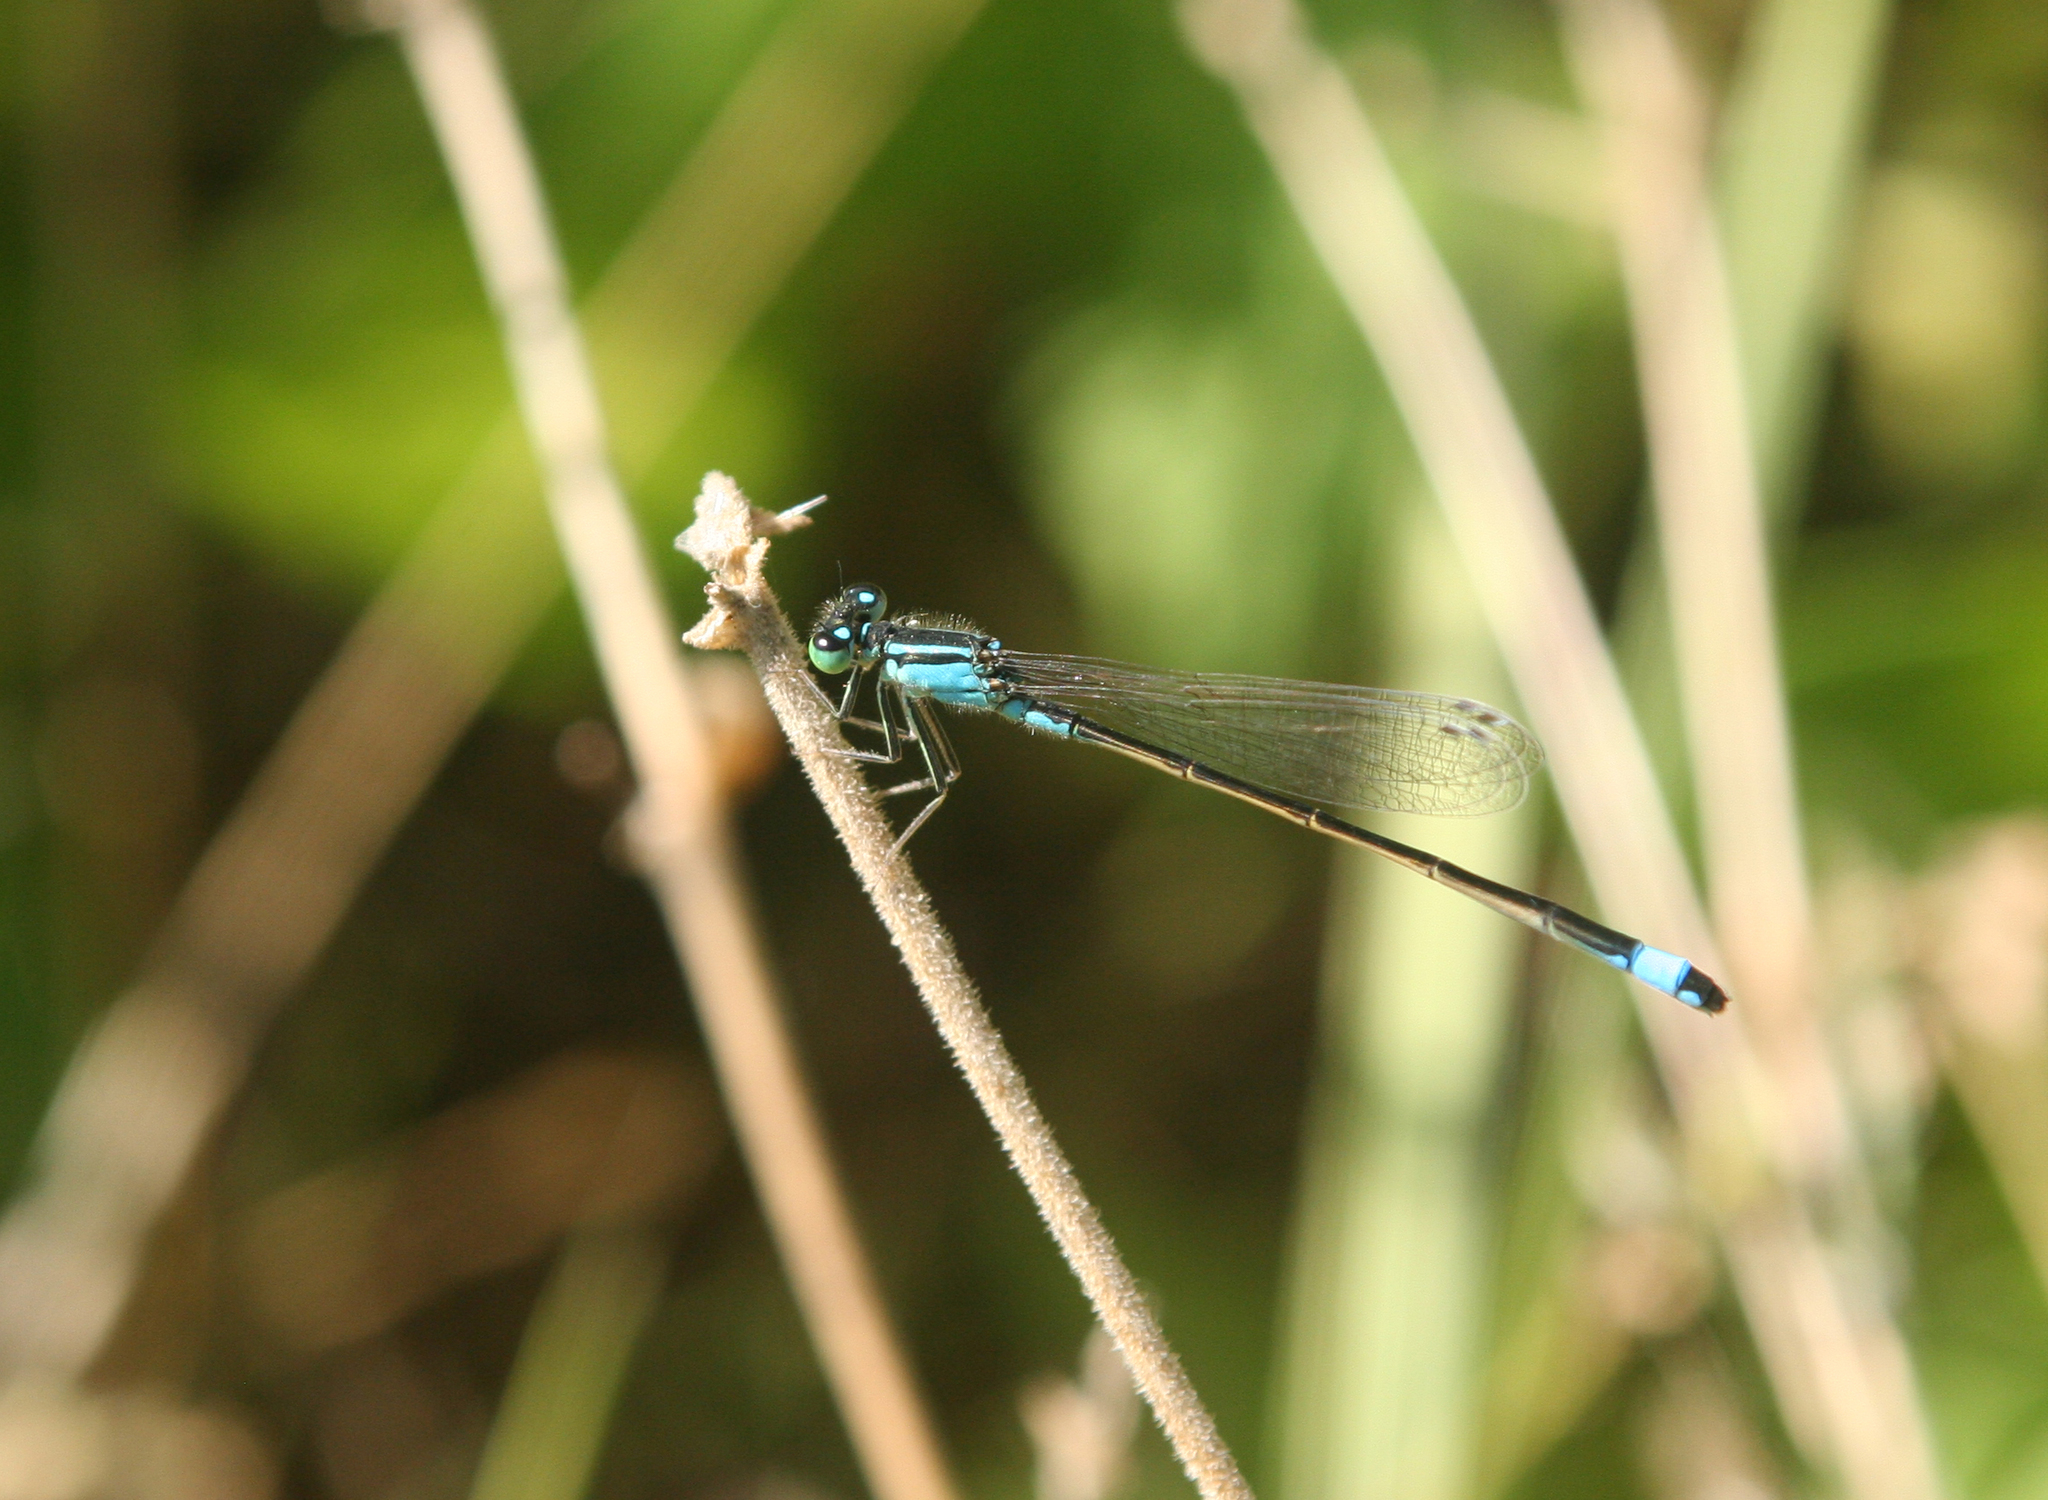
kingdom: Animalia
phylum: Arthropoda
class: Insecta
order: Odonata
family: Coenagrionidae
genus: Ischnura
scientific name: Ischnura elegans
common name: Blue-tailed damselfly
